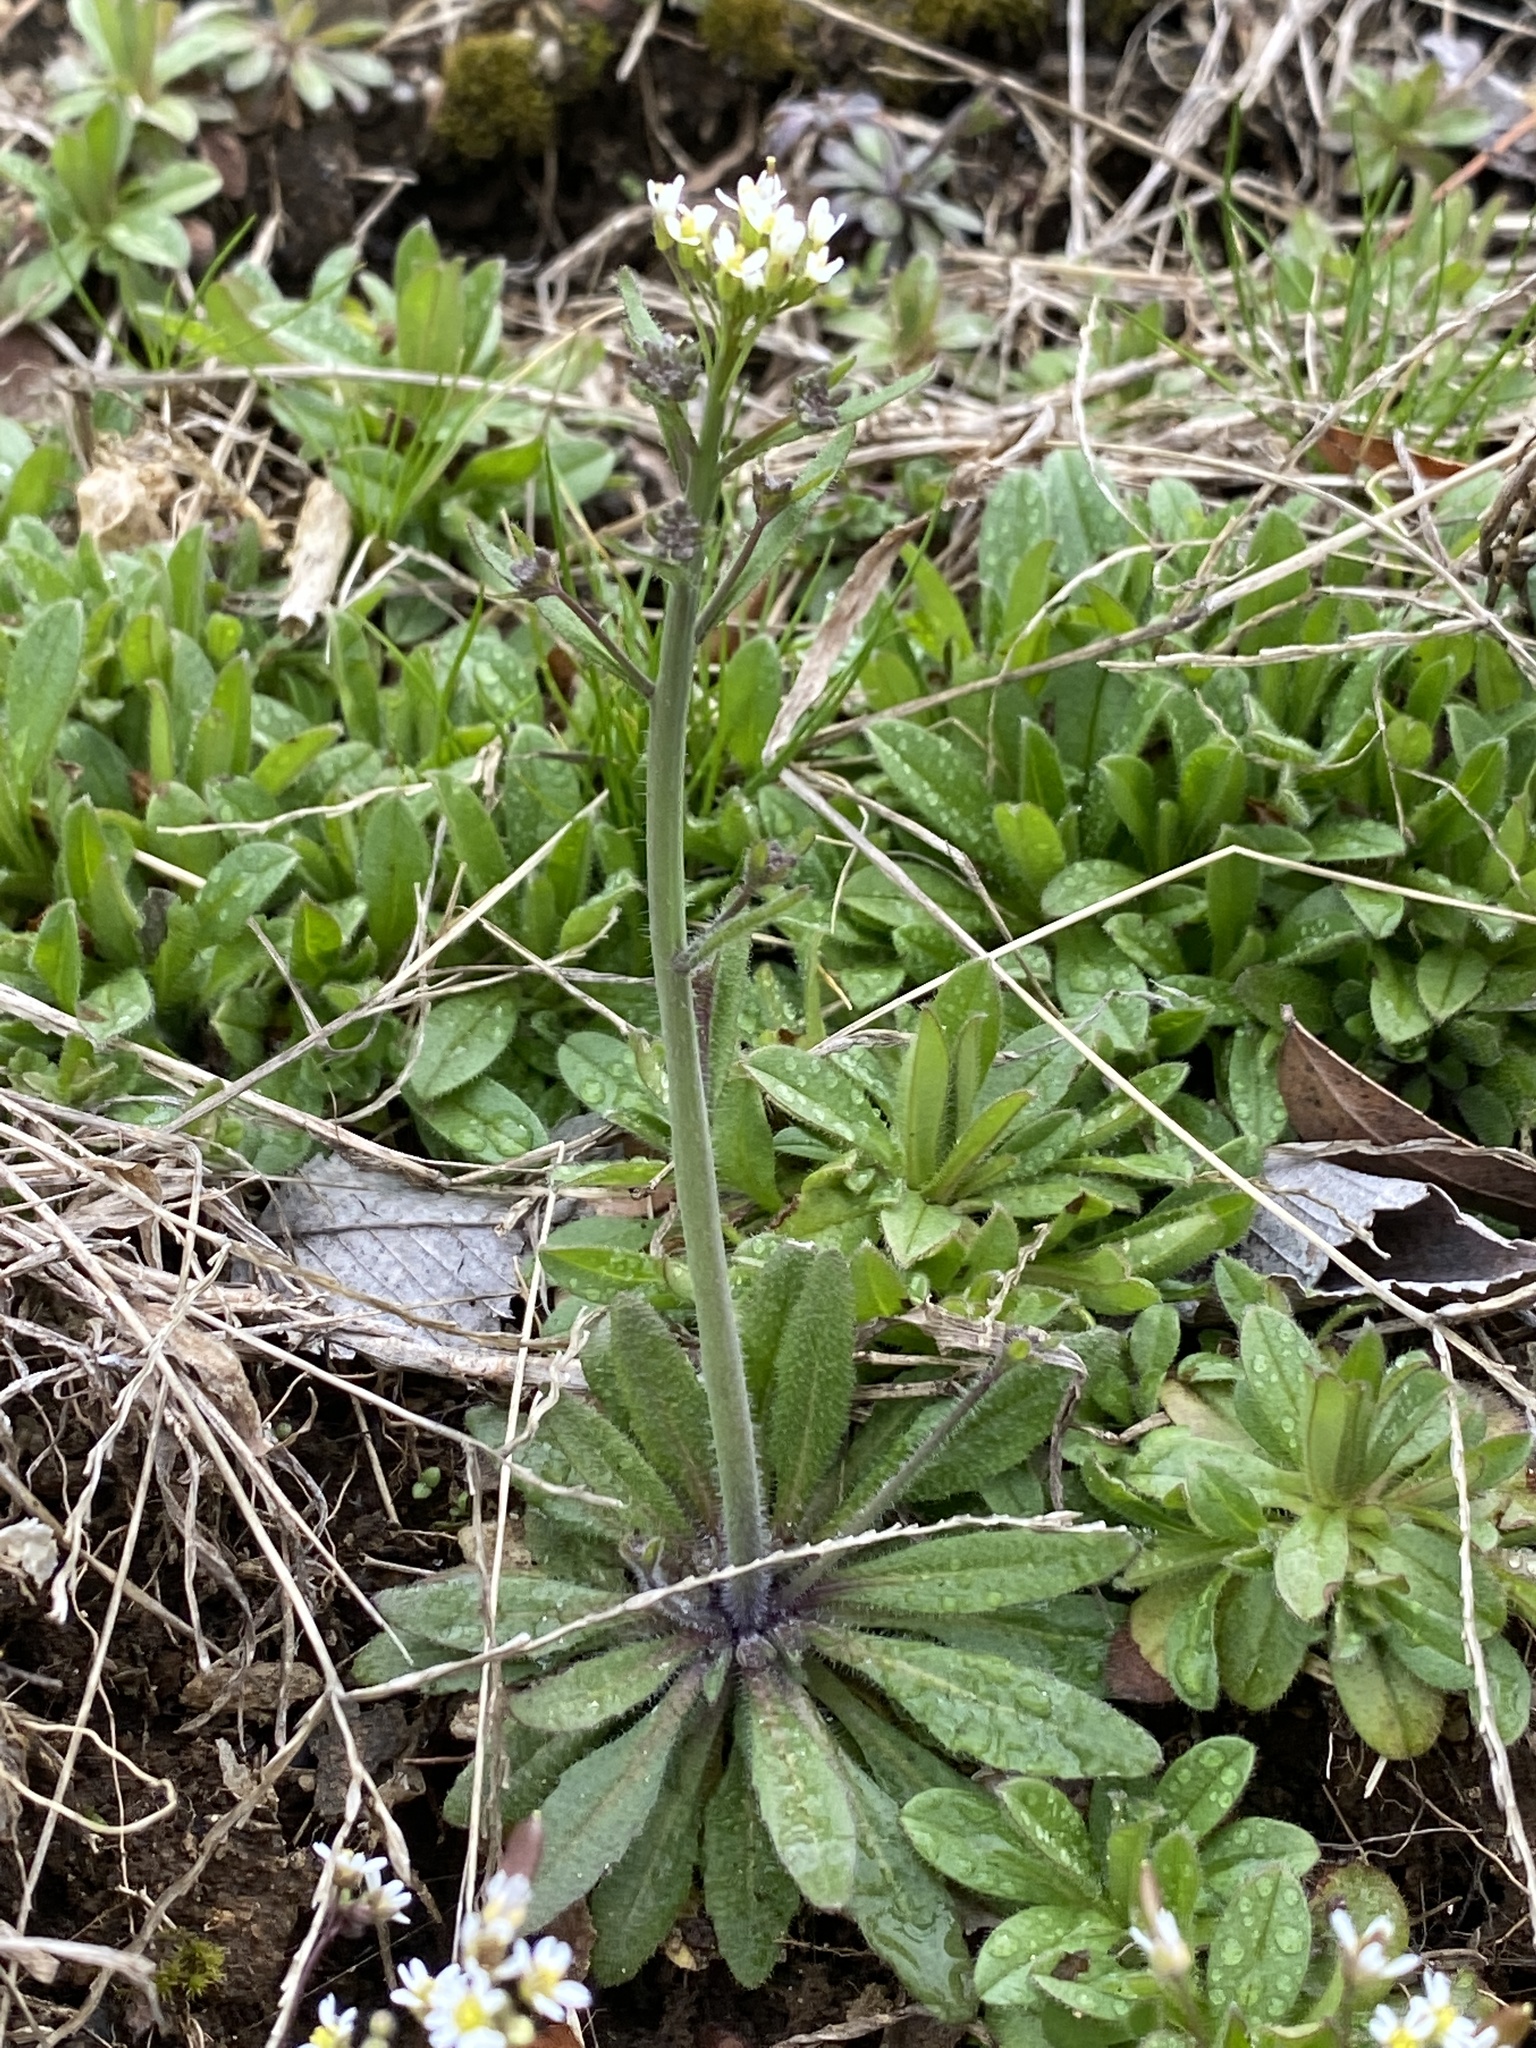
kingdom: Plantae
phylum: Tracheophyta
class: Magnoliopsida
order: Brassicales
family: Brassicaceae
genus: Arabidopsis
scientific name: Arabidopsis thaliana
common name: Thale cress
